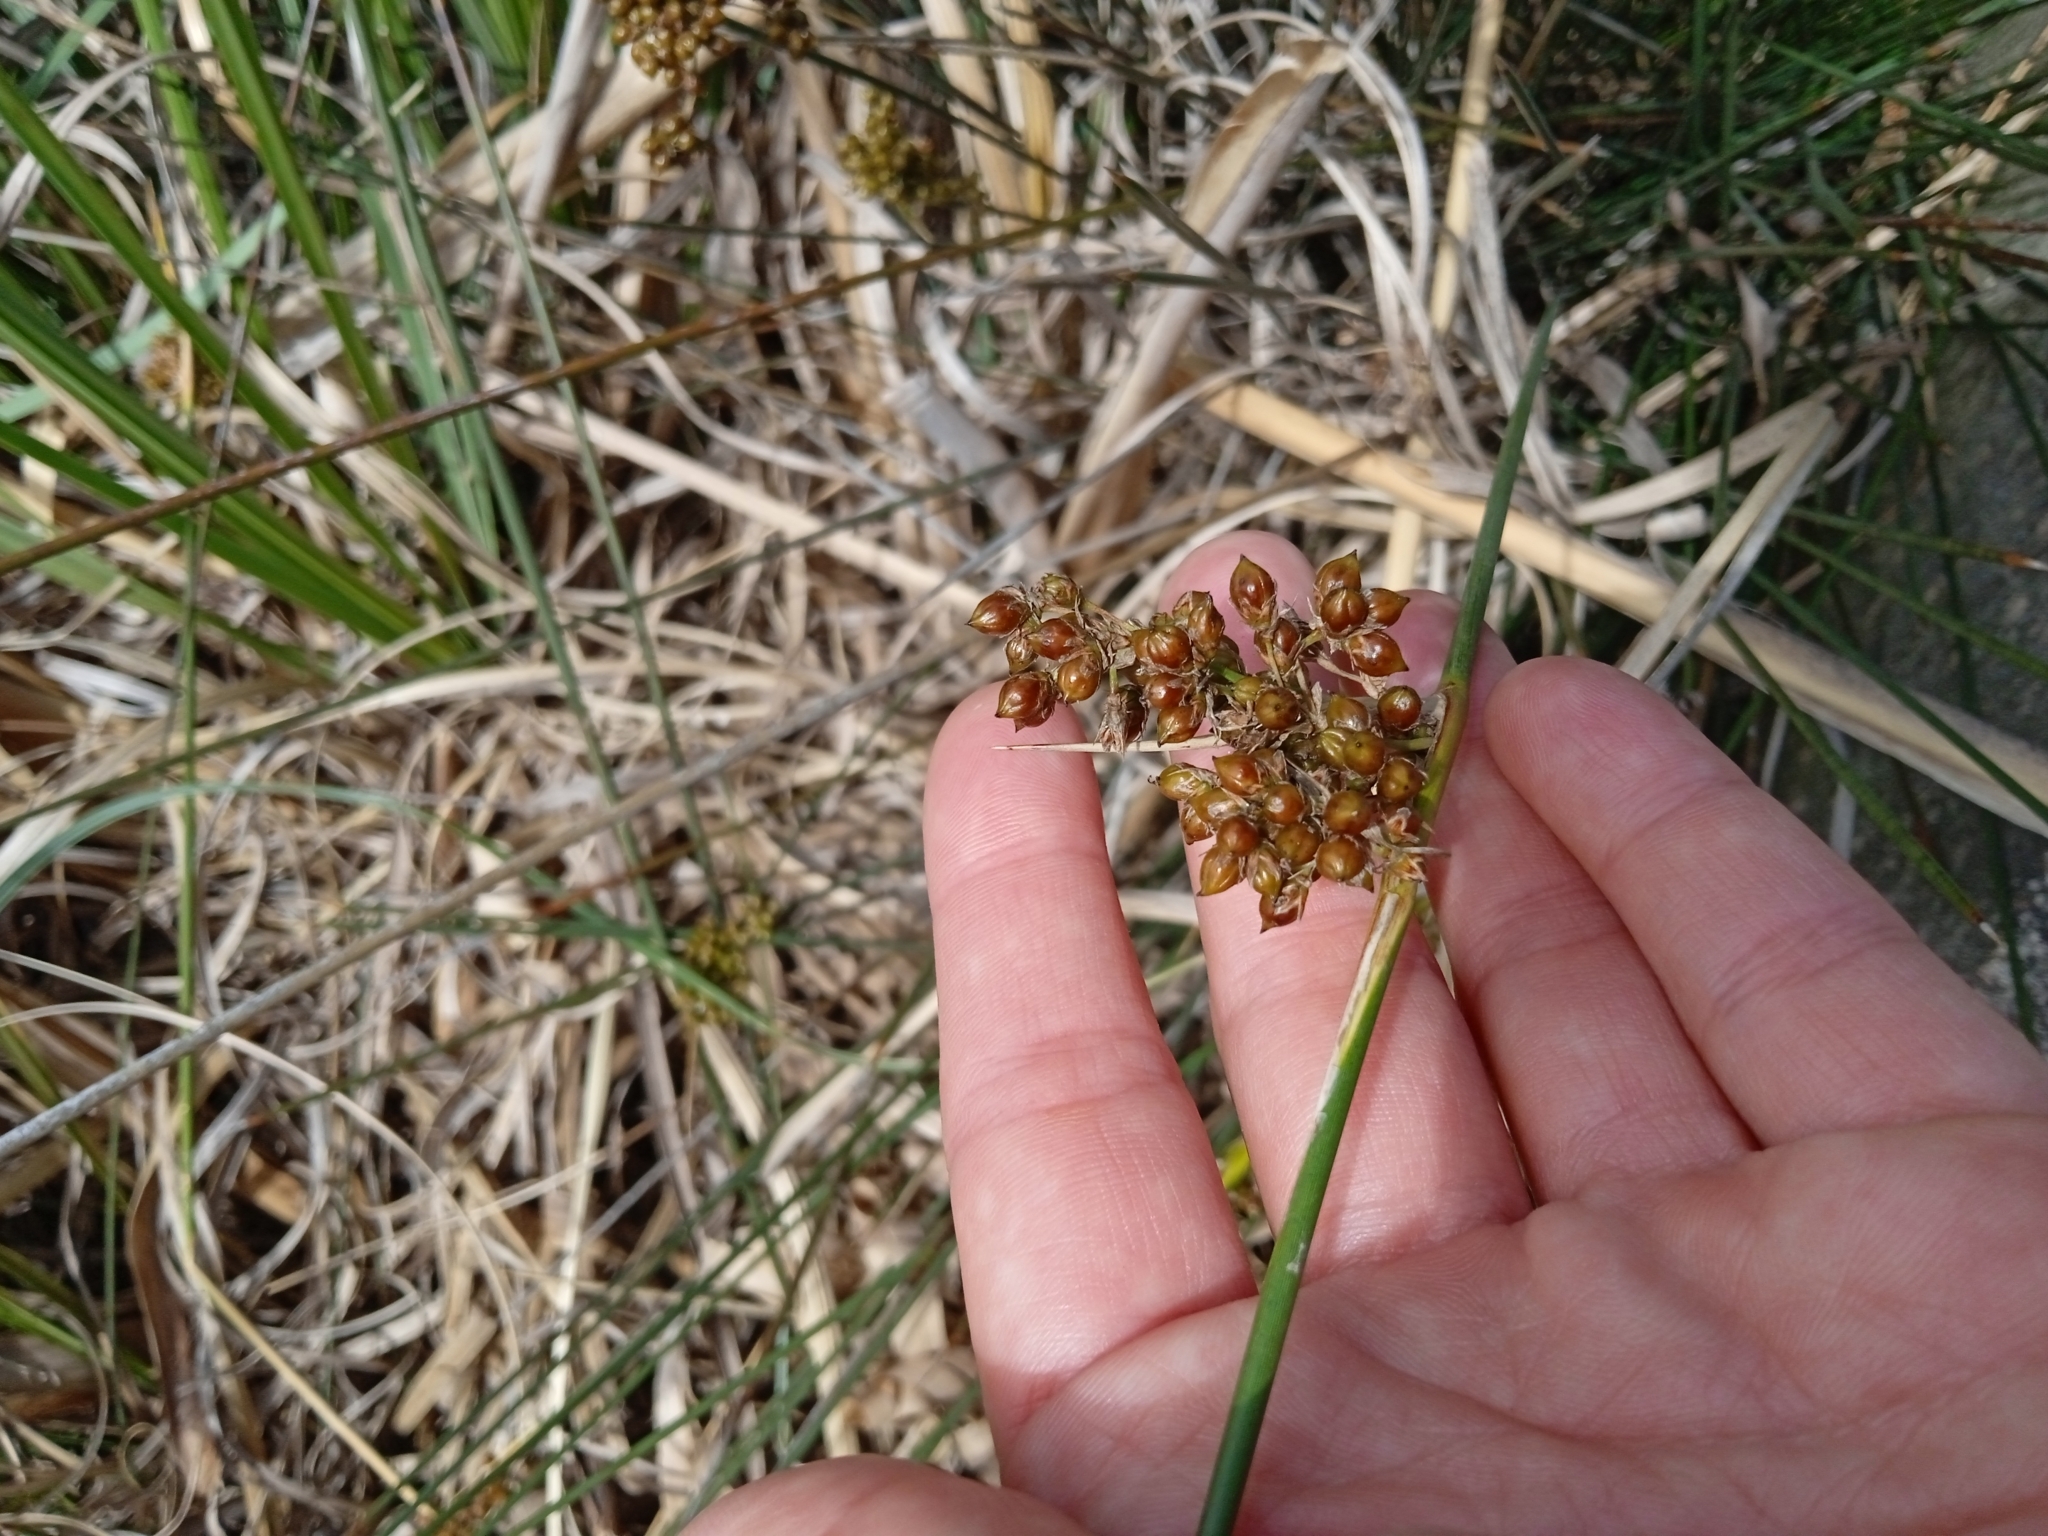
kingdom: Plantae
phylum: Tracheophyta
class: Liliopsida
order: Poales
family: Juncaceae
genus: Juncus
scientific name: Juncus acutus
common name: Sharp rush
